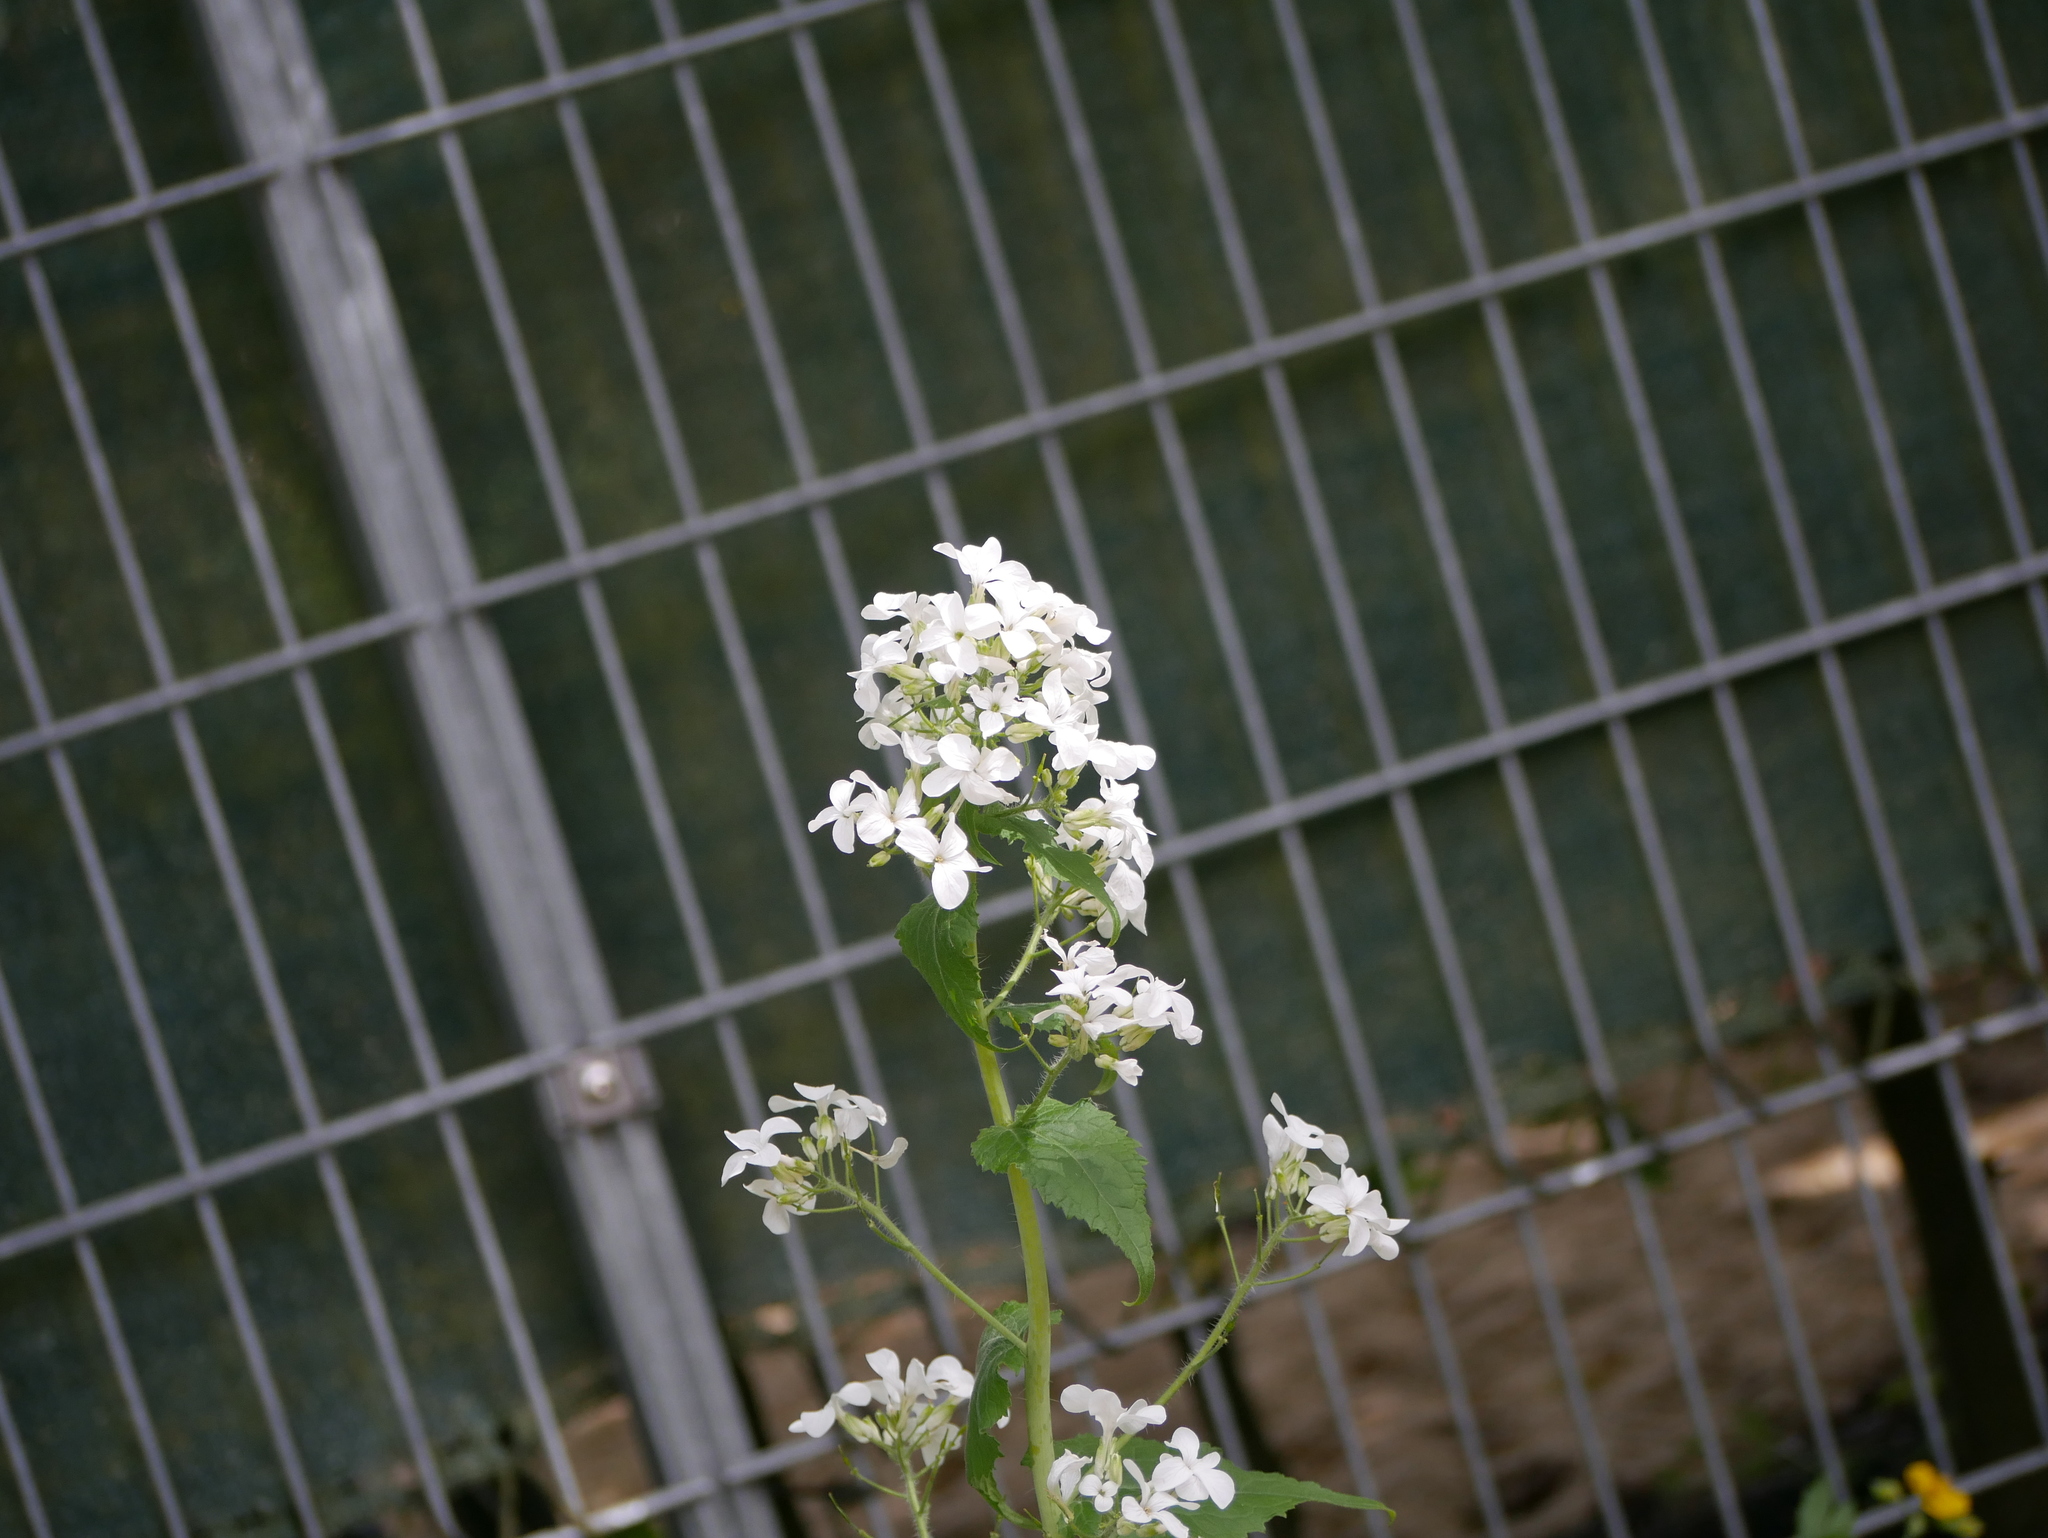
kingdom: Plantae
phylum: Tracheophyta
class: Magnoliopsida
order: Brassicales
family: Brassicaceae
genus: Lunaria
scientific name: Lunaria annua
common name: Honesty
